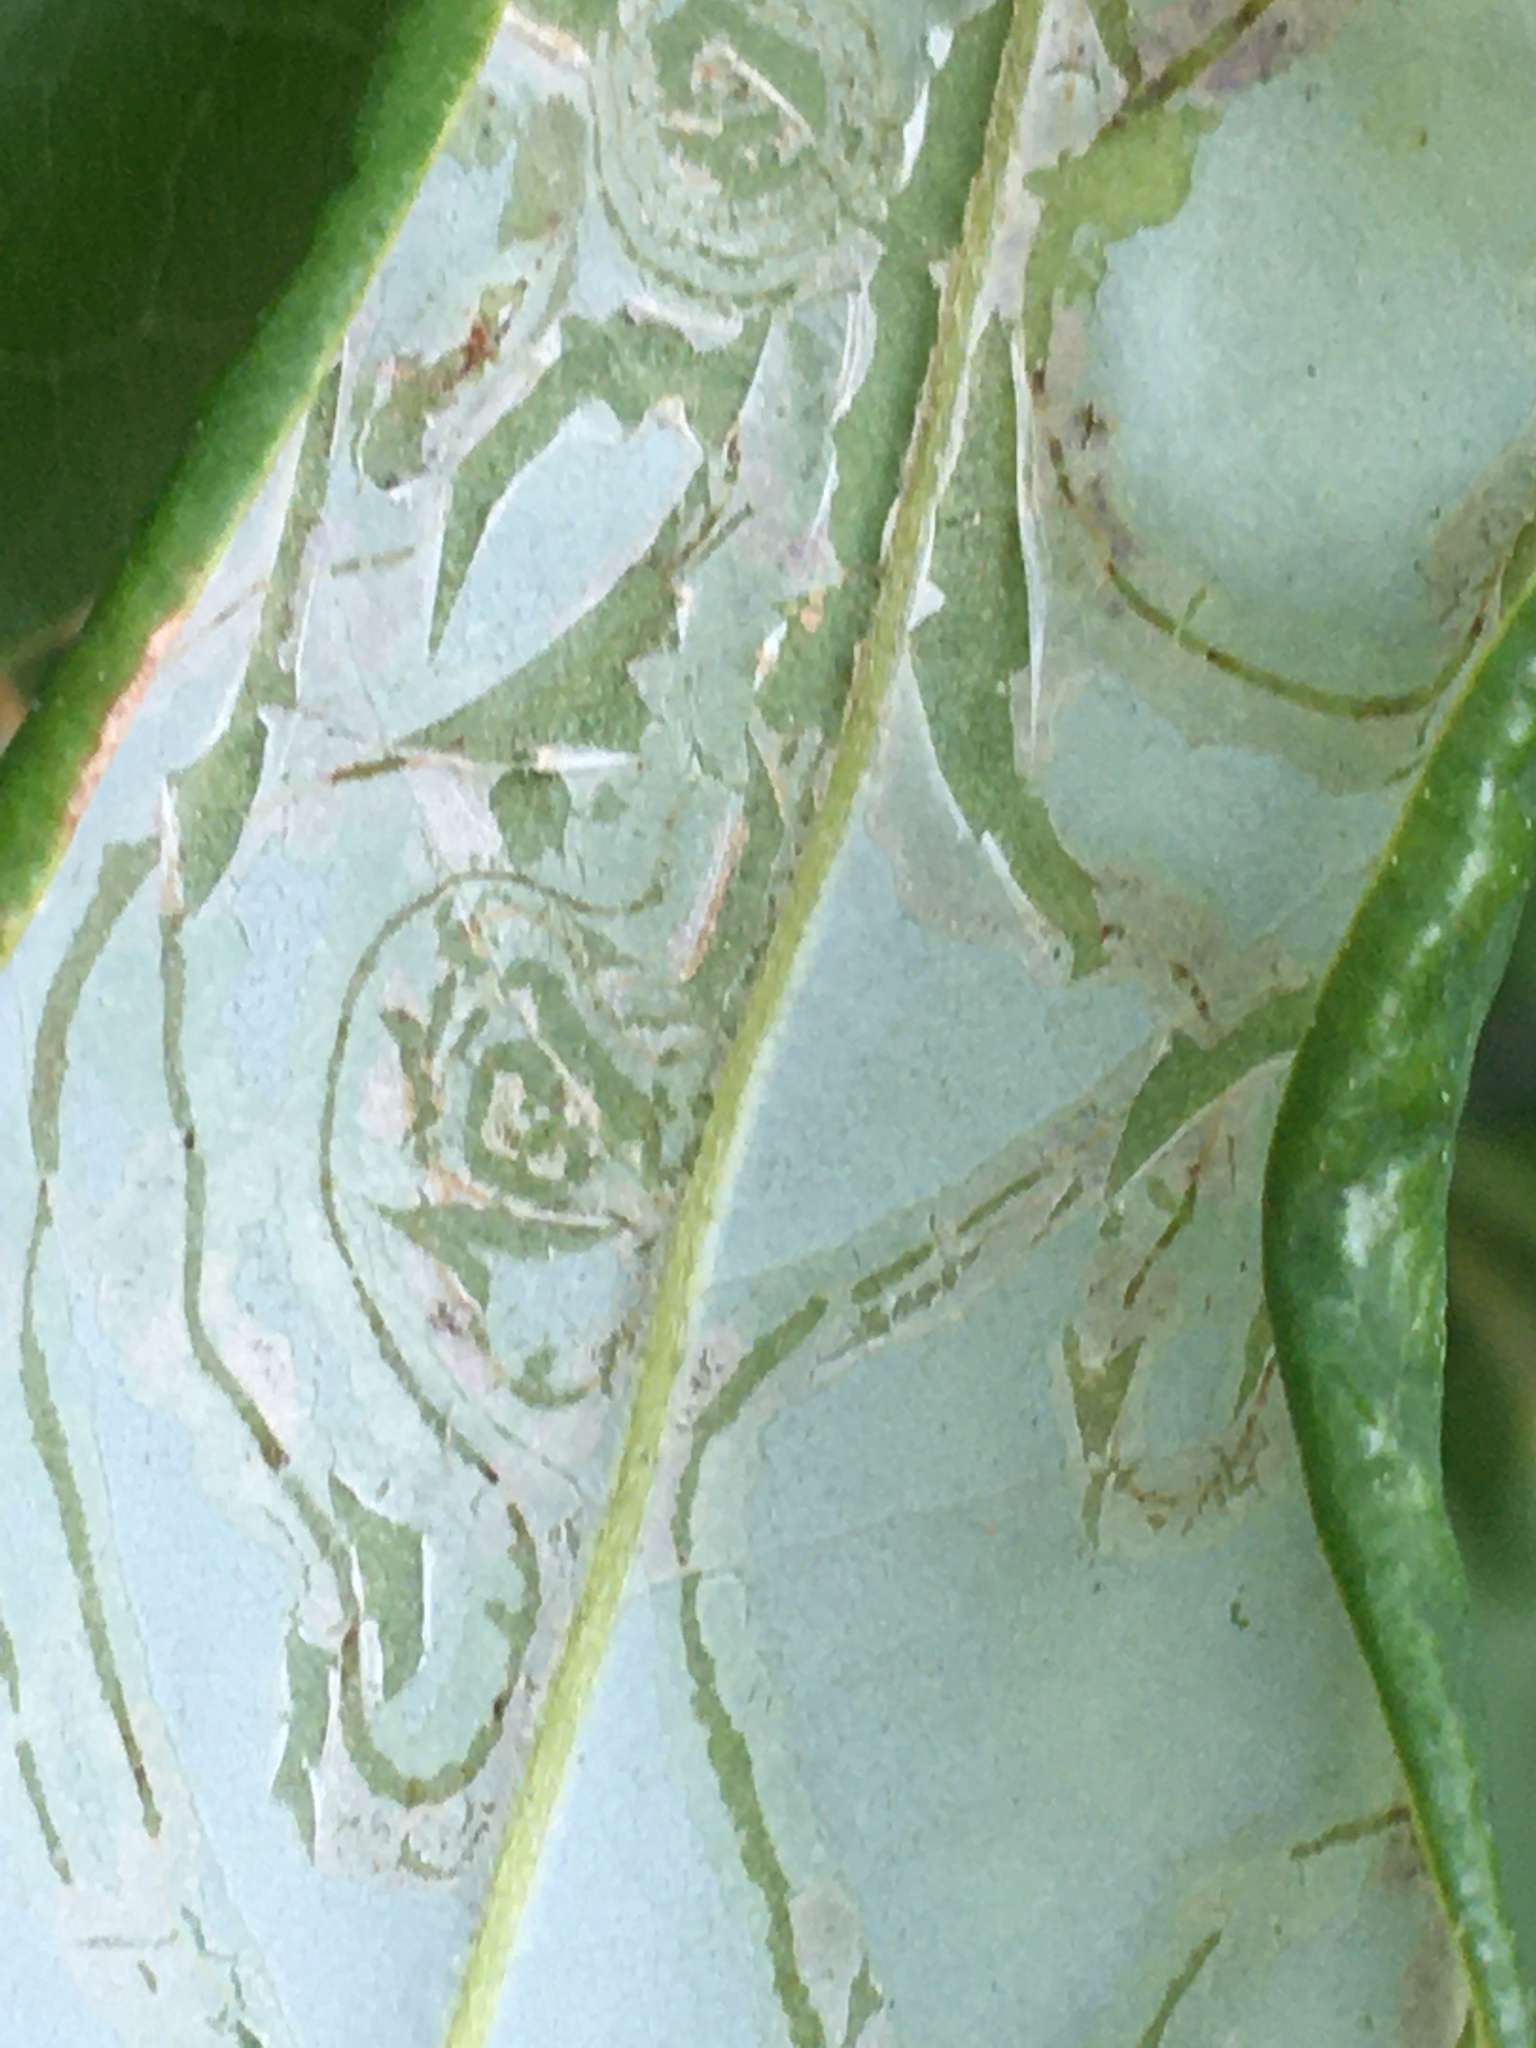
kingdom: Animalia
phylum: Arthropoda
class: Insecta
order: Lepidoptera
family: Gracillariidae
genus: Phyllocnistis
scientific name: Phyllocnistis liriodendronella
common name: Tulip tree leaf miner
